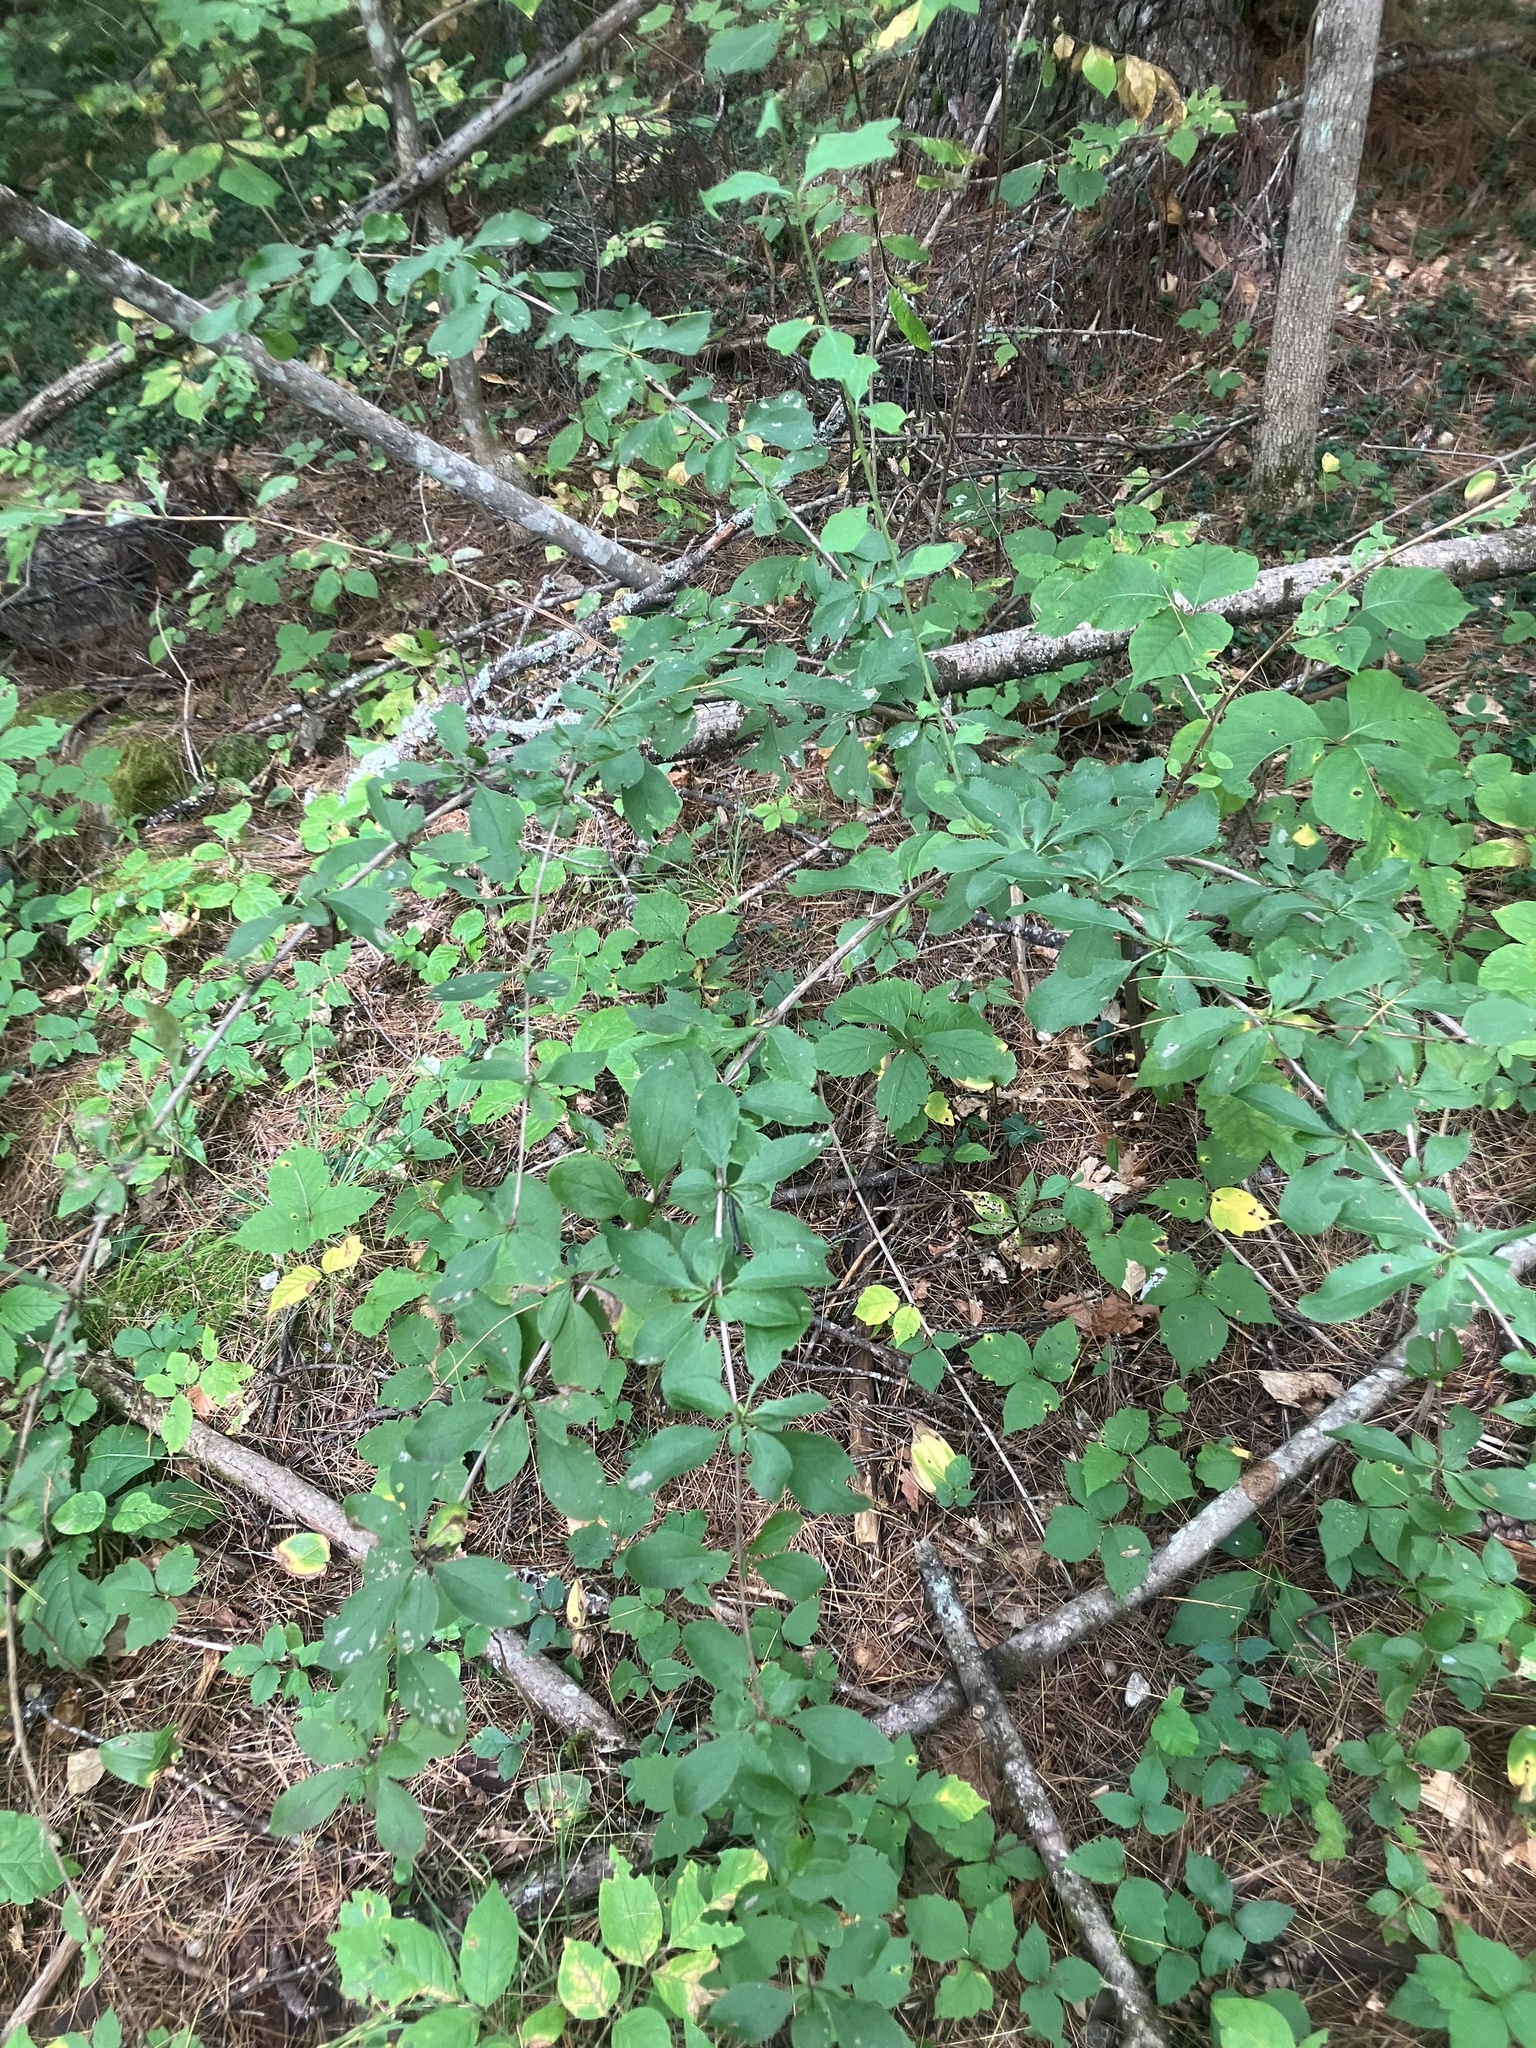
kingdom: Plantae
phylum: Tracheophyta
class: Magnoliopsida
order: Ranunculales
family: Berberidaceae
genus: Berberis
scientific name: Berberis vulgaris
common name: Barberry
